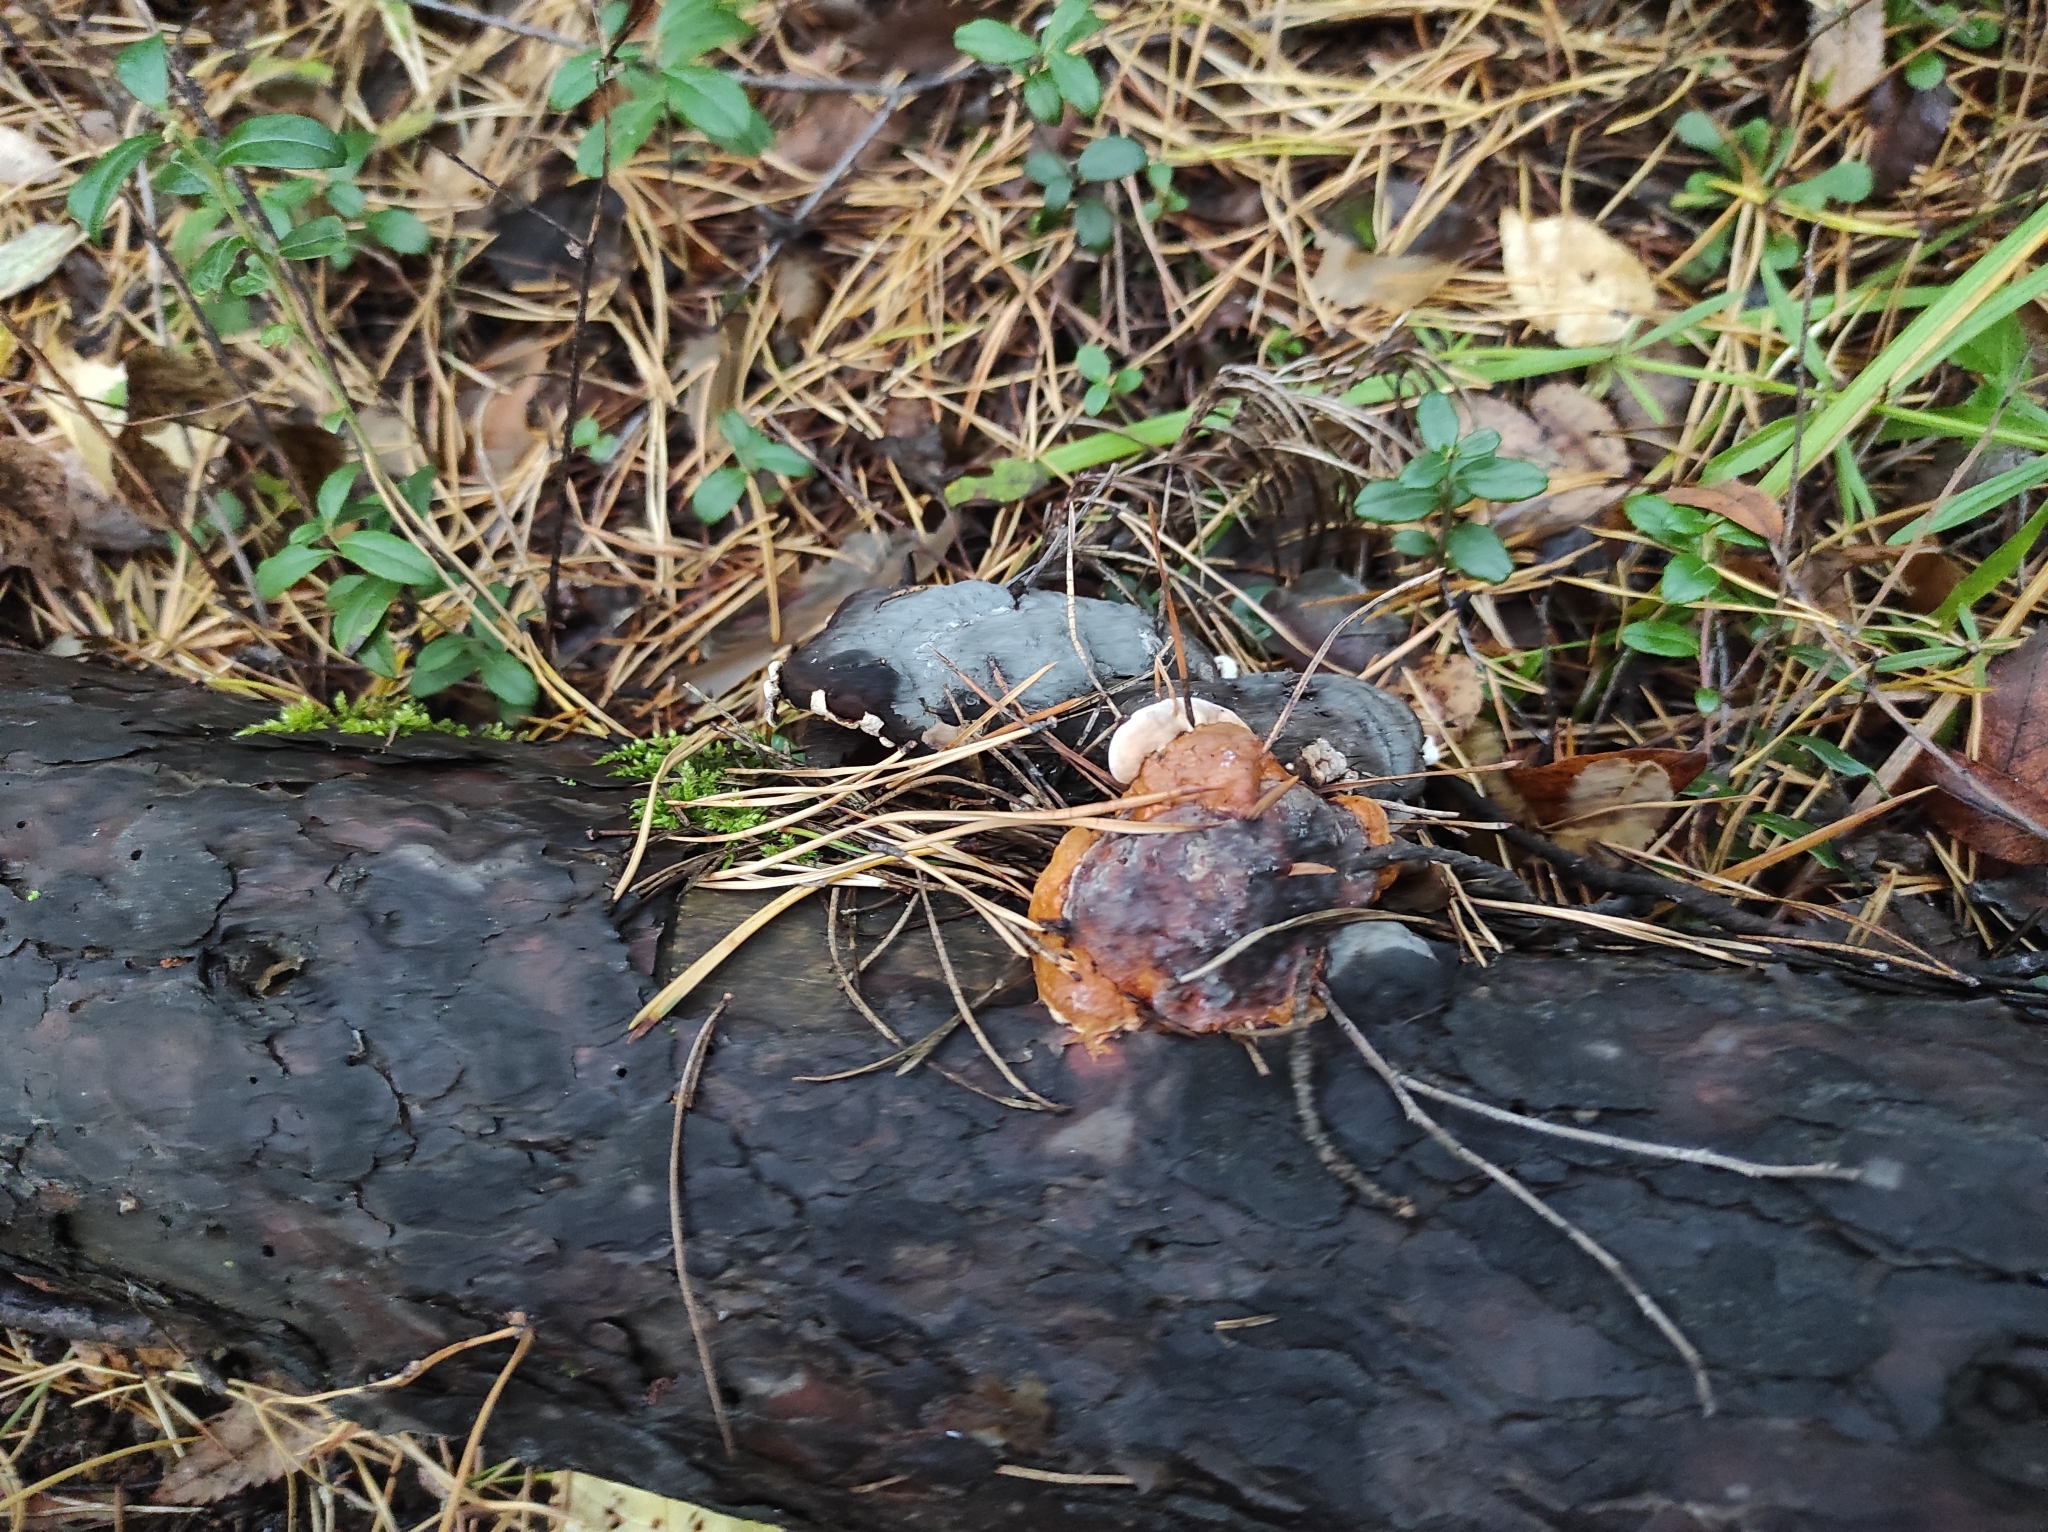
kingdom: Fungi
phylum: Basidiomycota
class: Agaricomycetes
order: Polyporales
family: Fomitopsidaceae
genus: Fomitopsis
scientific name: Fomitopsis pinicola
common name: Red-belted bracket
